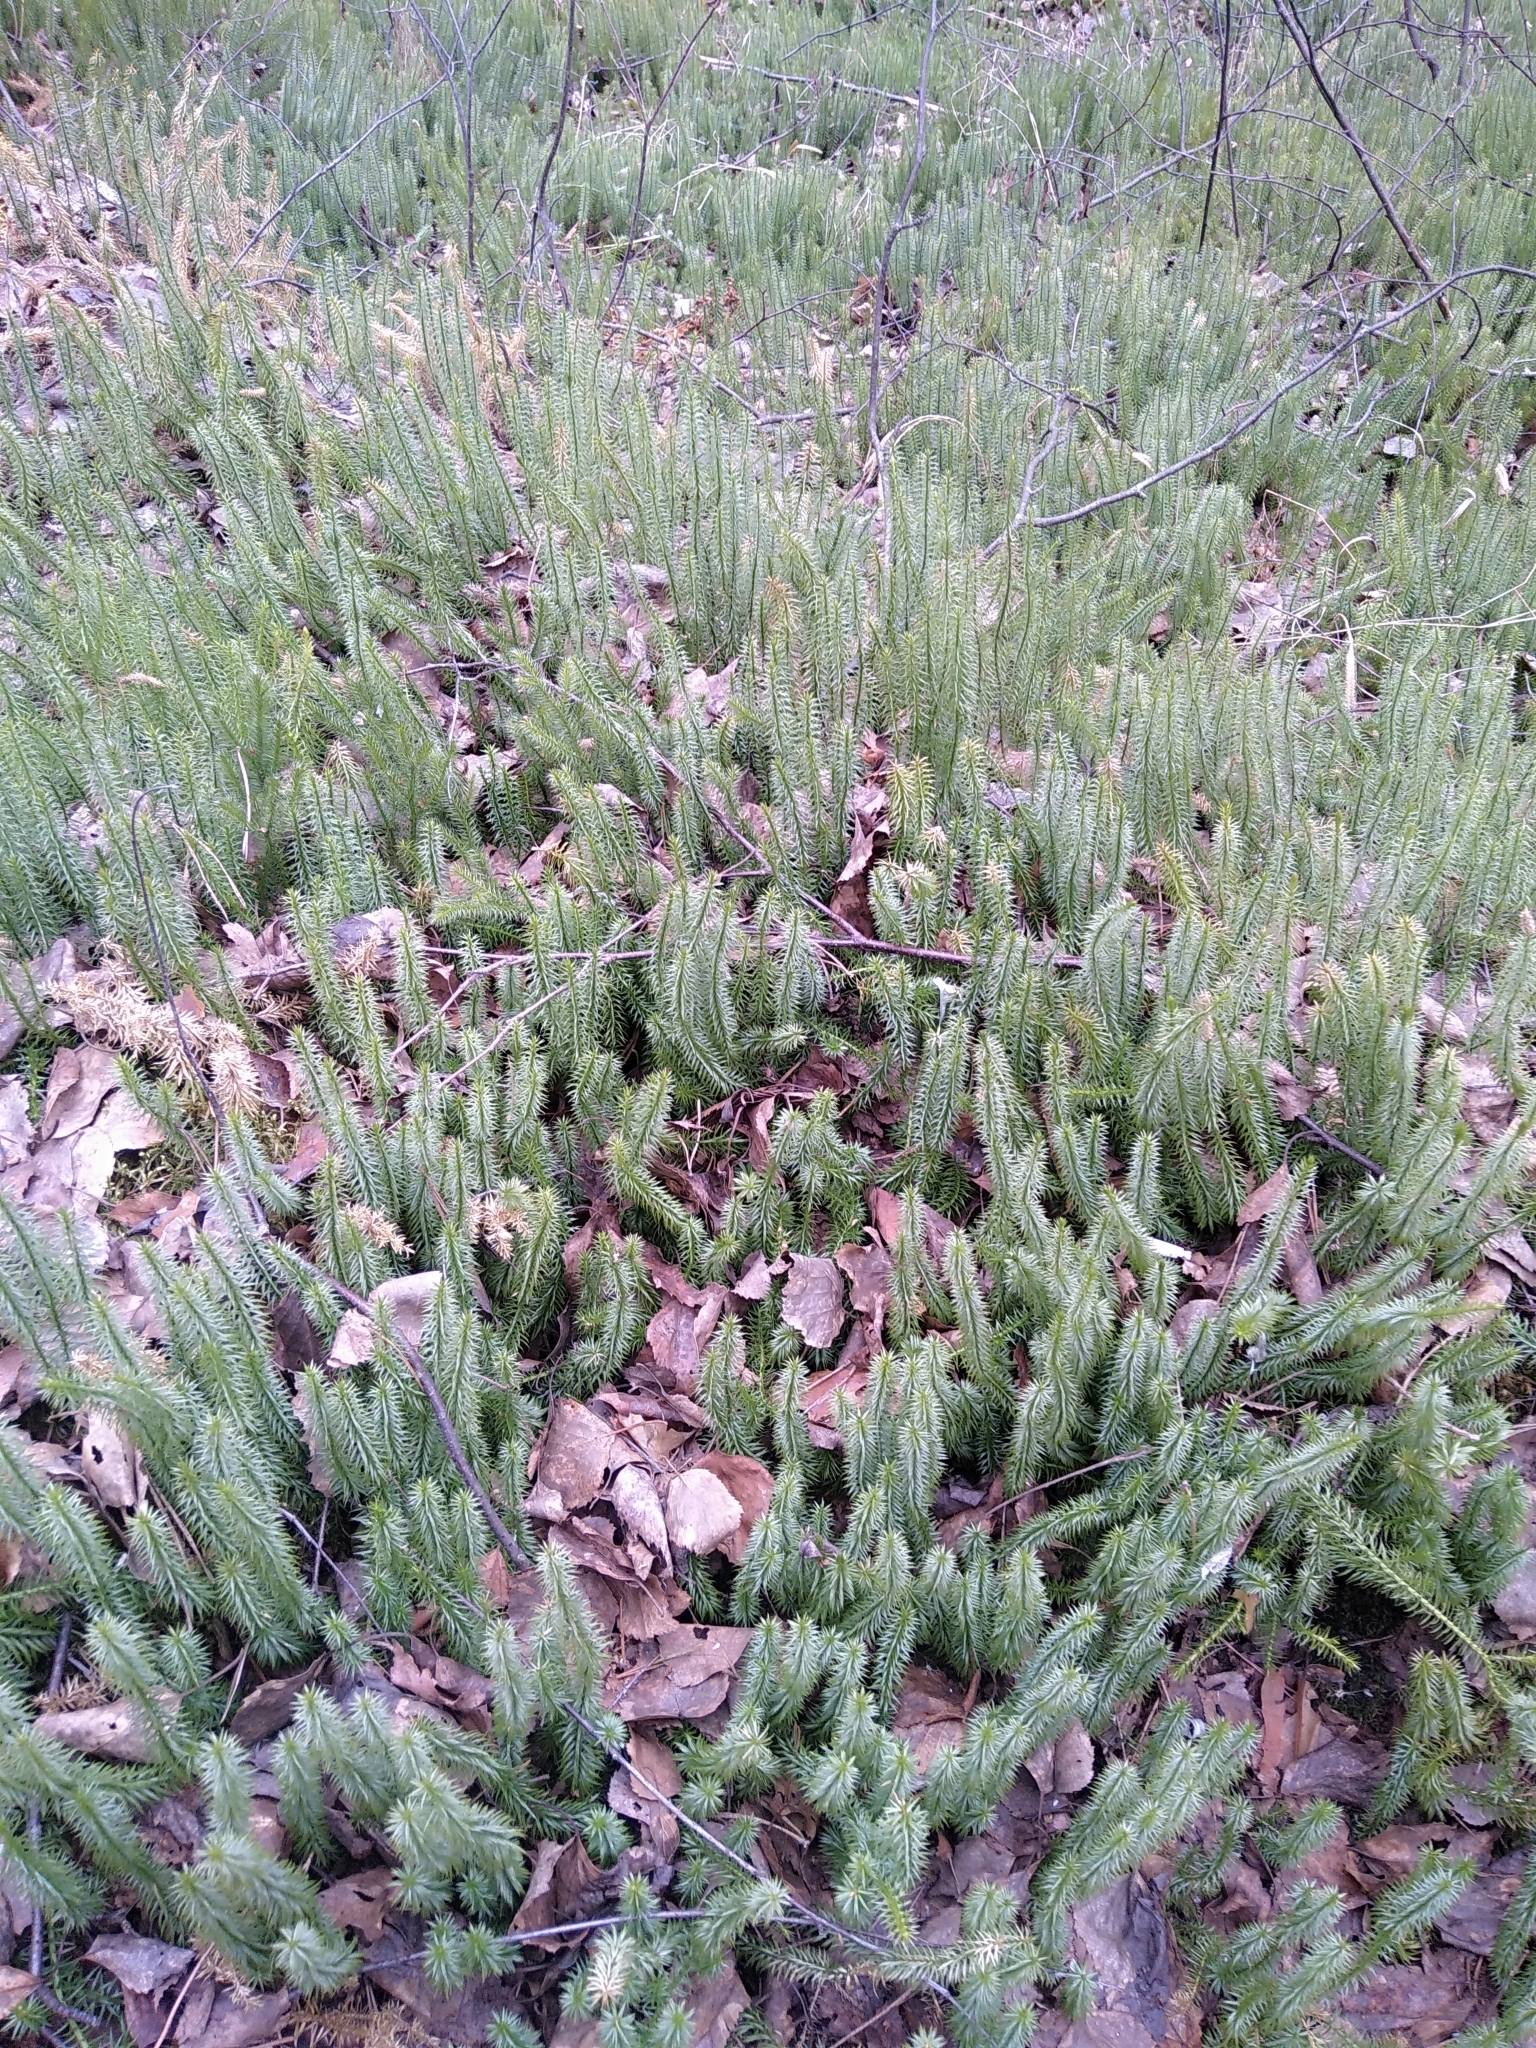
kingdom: Plantae
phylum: Tracheophyta
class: Lycopodiopsida
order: Lycopodiales
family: Lycopodiaceae
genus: Spinulum
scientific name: Spinulum annotinum
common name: Interrupted club-moss
